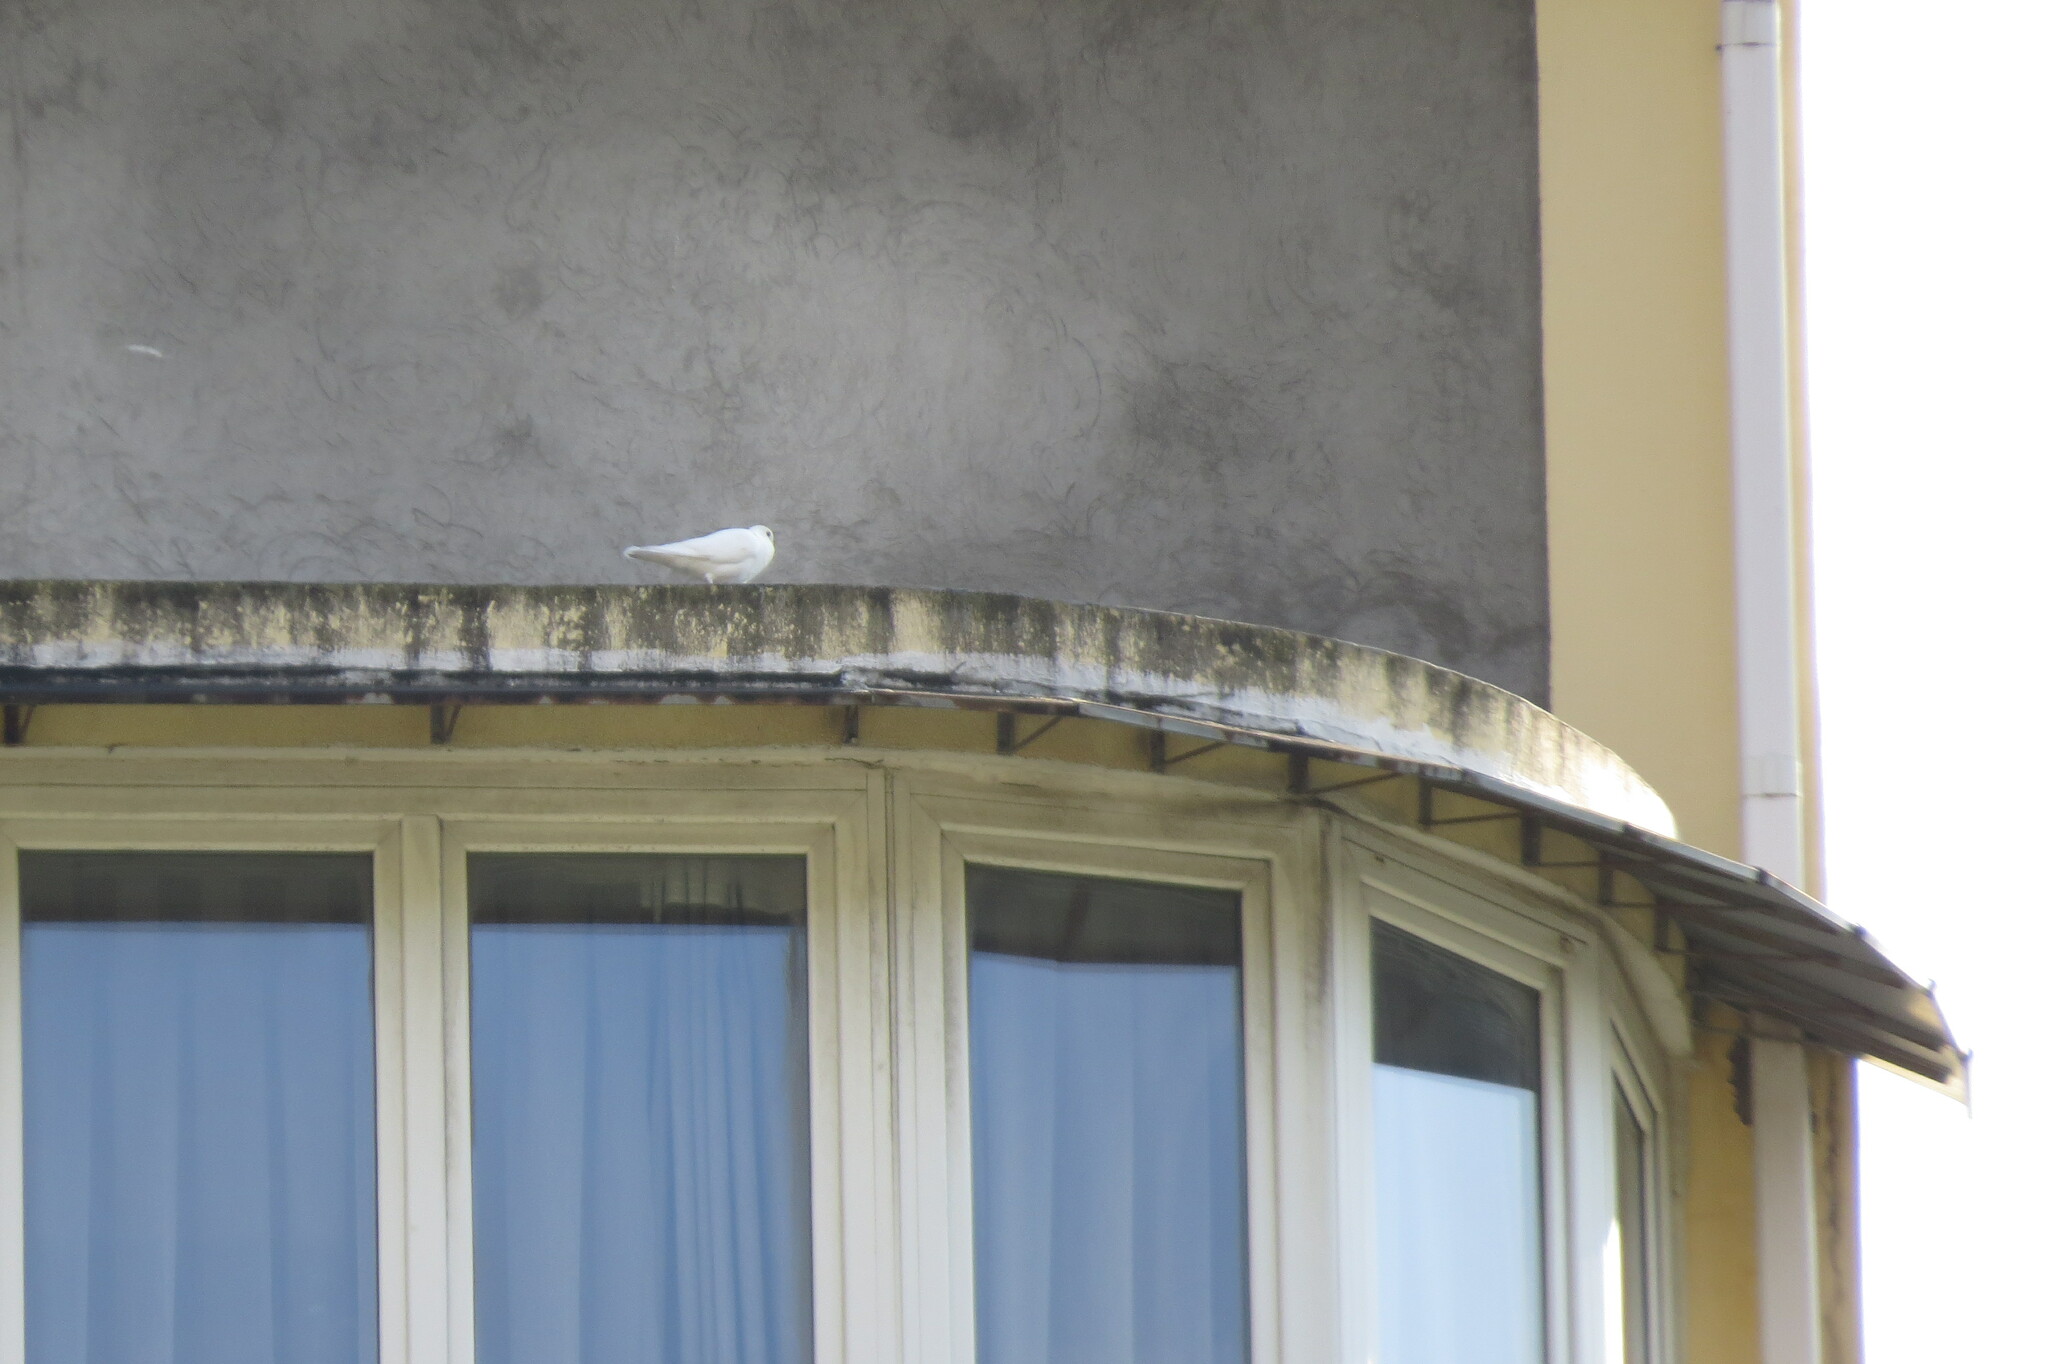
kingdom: Animalia
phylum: Chordata
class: Aves
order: Columbiformes
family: Columbidae
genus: Columba
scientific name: Columba livia
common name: Rock pigeon
